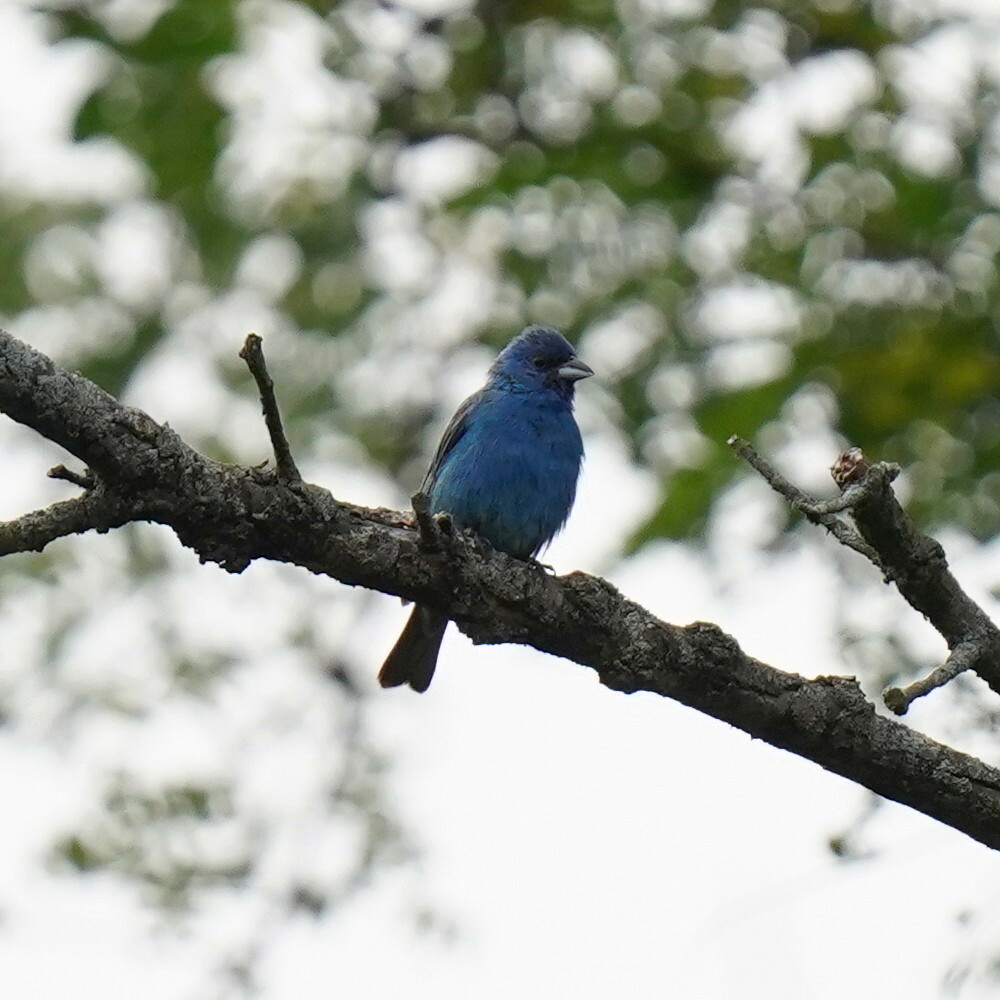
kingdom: Animalia
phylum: Chordata
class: Aves
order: Passeriformes
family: Cardinalidae
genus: Passerina
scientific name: Passerina cyanea
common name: Indigo bunting
